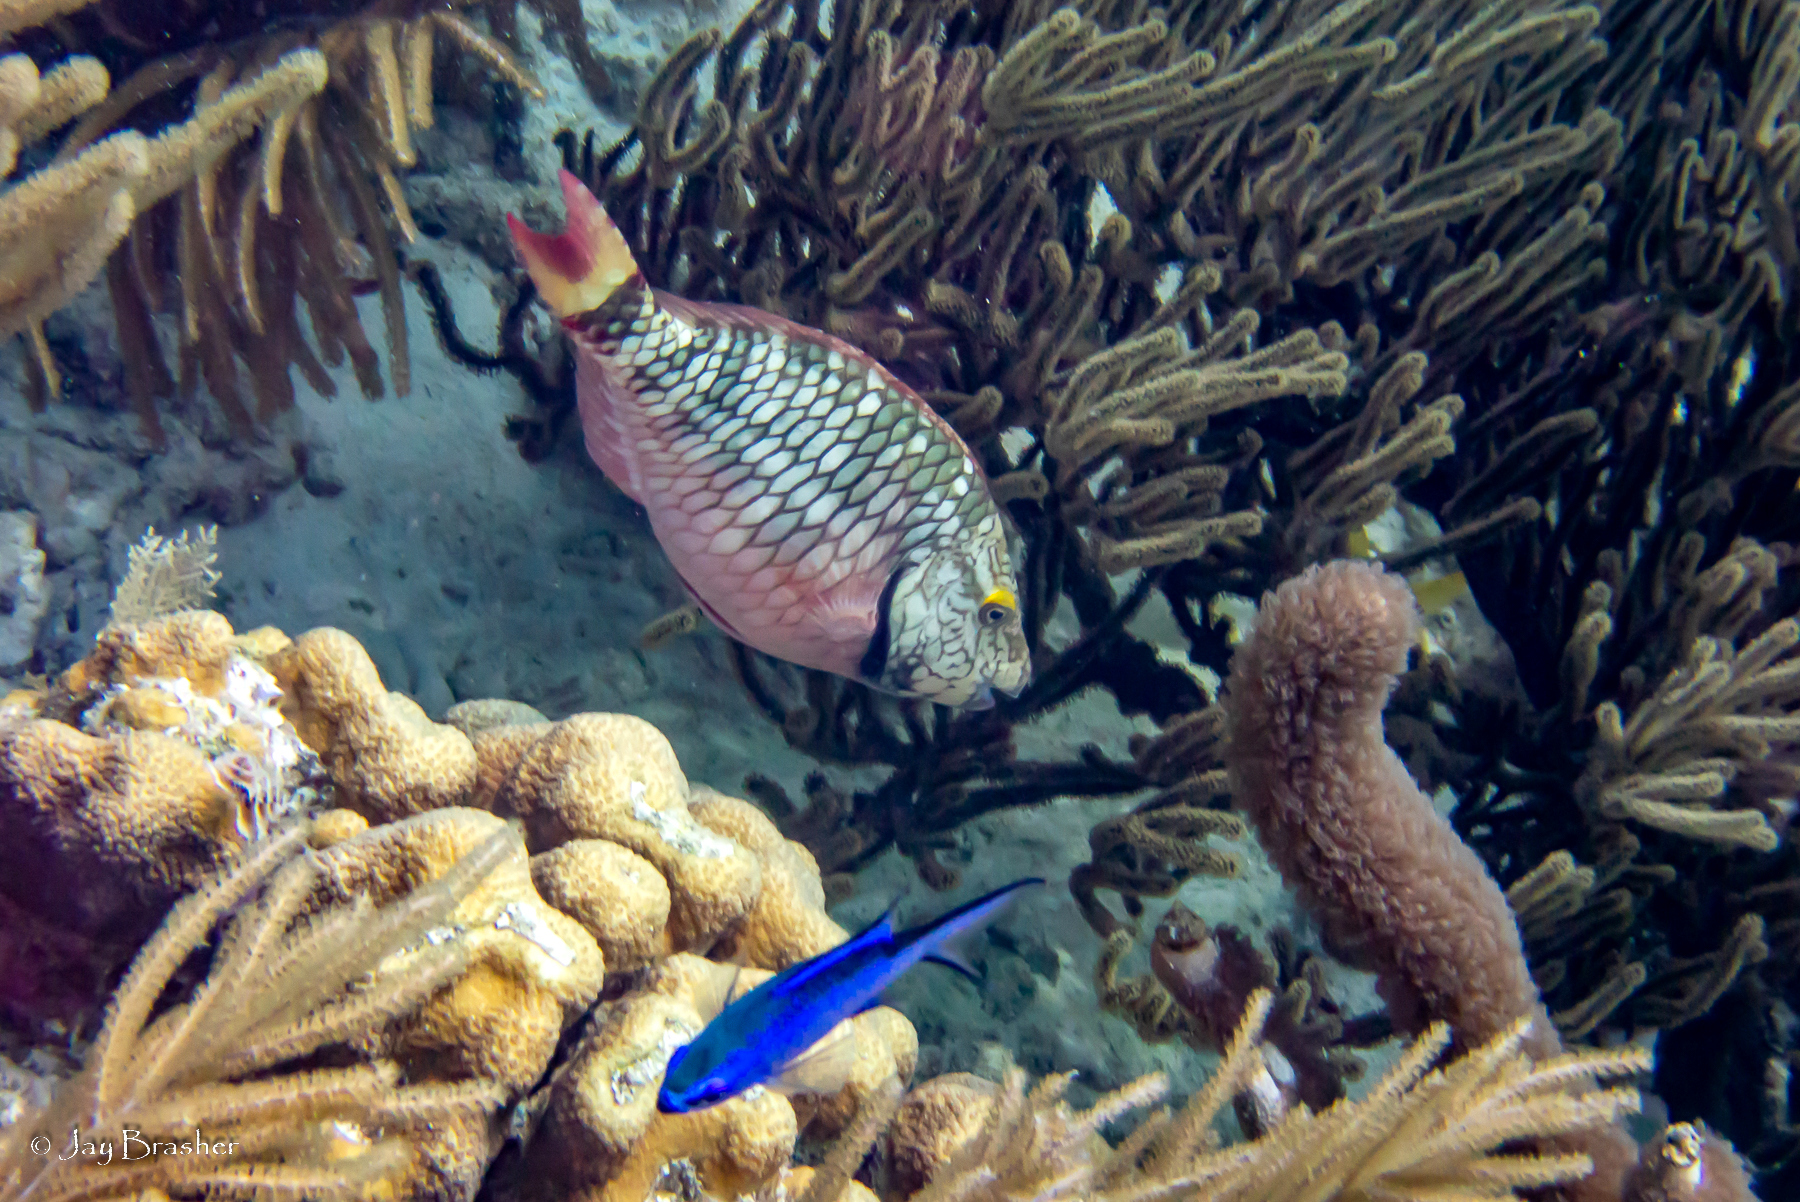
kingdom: Animalia
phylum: Chordata
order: Perciformes
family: Scaridae
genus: Sparisoma
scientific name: Sparisoma viride
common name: Stoplight parrotfish
